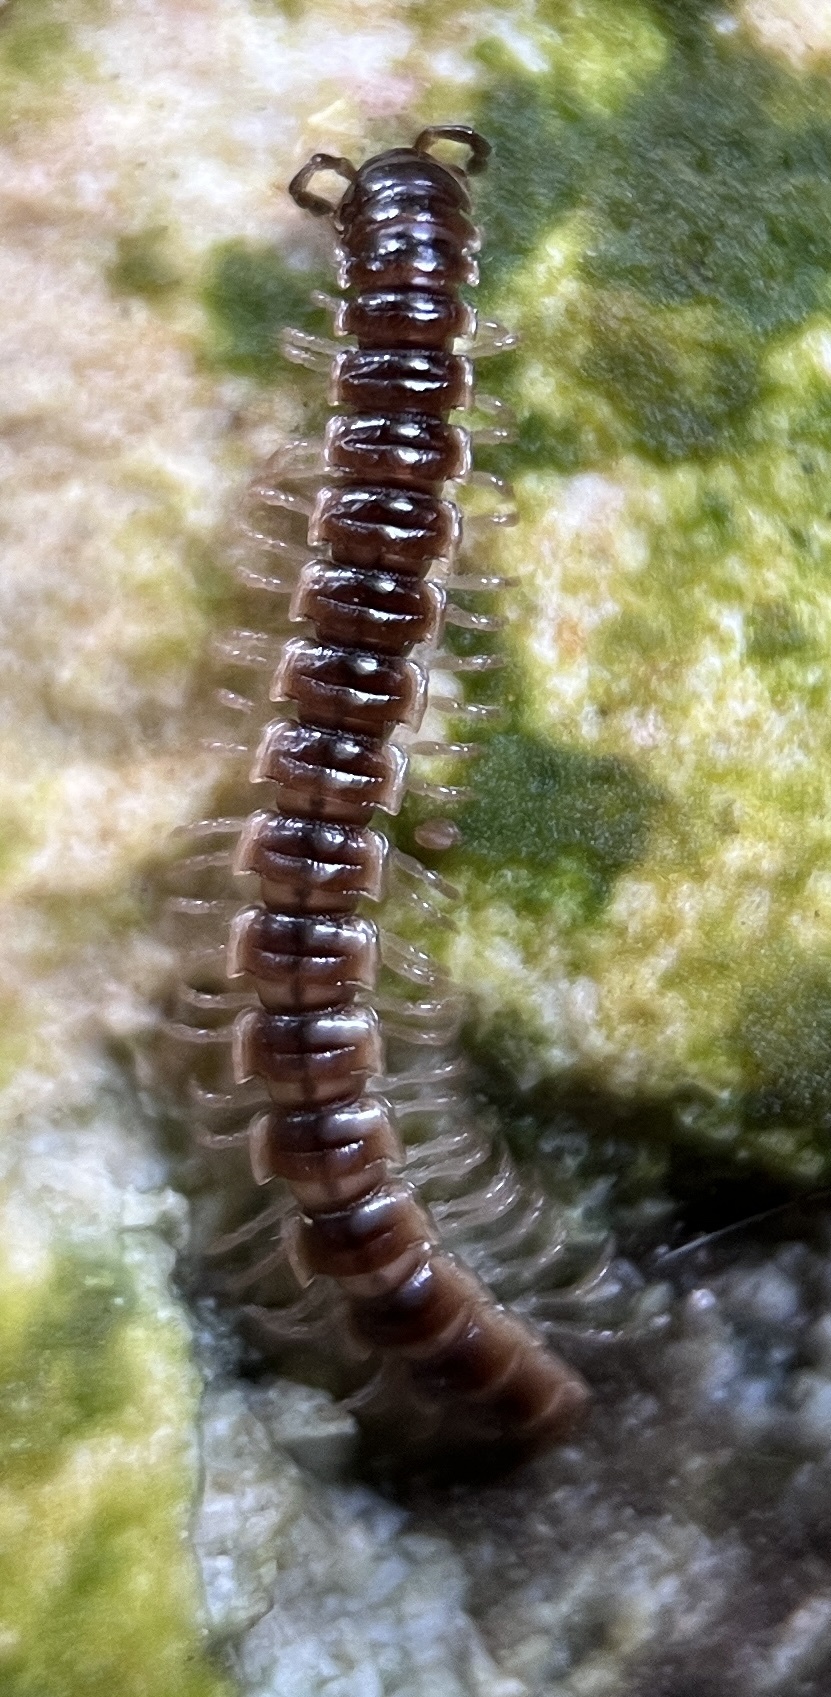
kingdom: Animalia
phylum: Arthropoda
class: Diplopoda
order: Polydesmida
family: Paradoxosomatidae
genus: Oxidus
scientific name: Oxidus gracilis
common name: Greenhouse millipede
